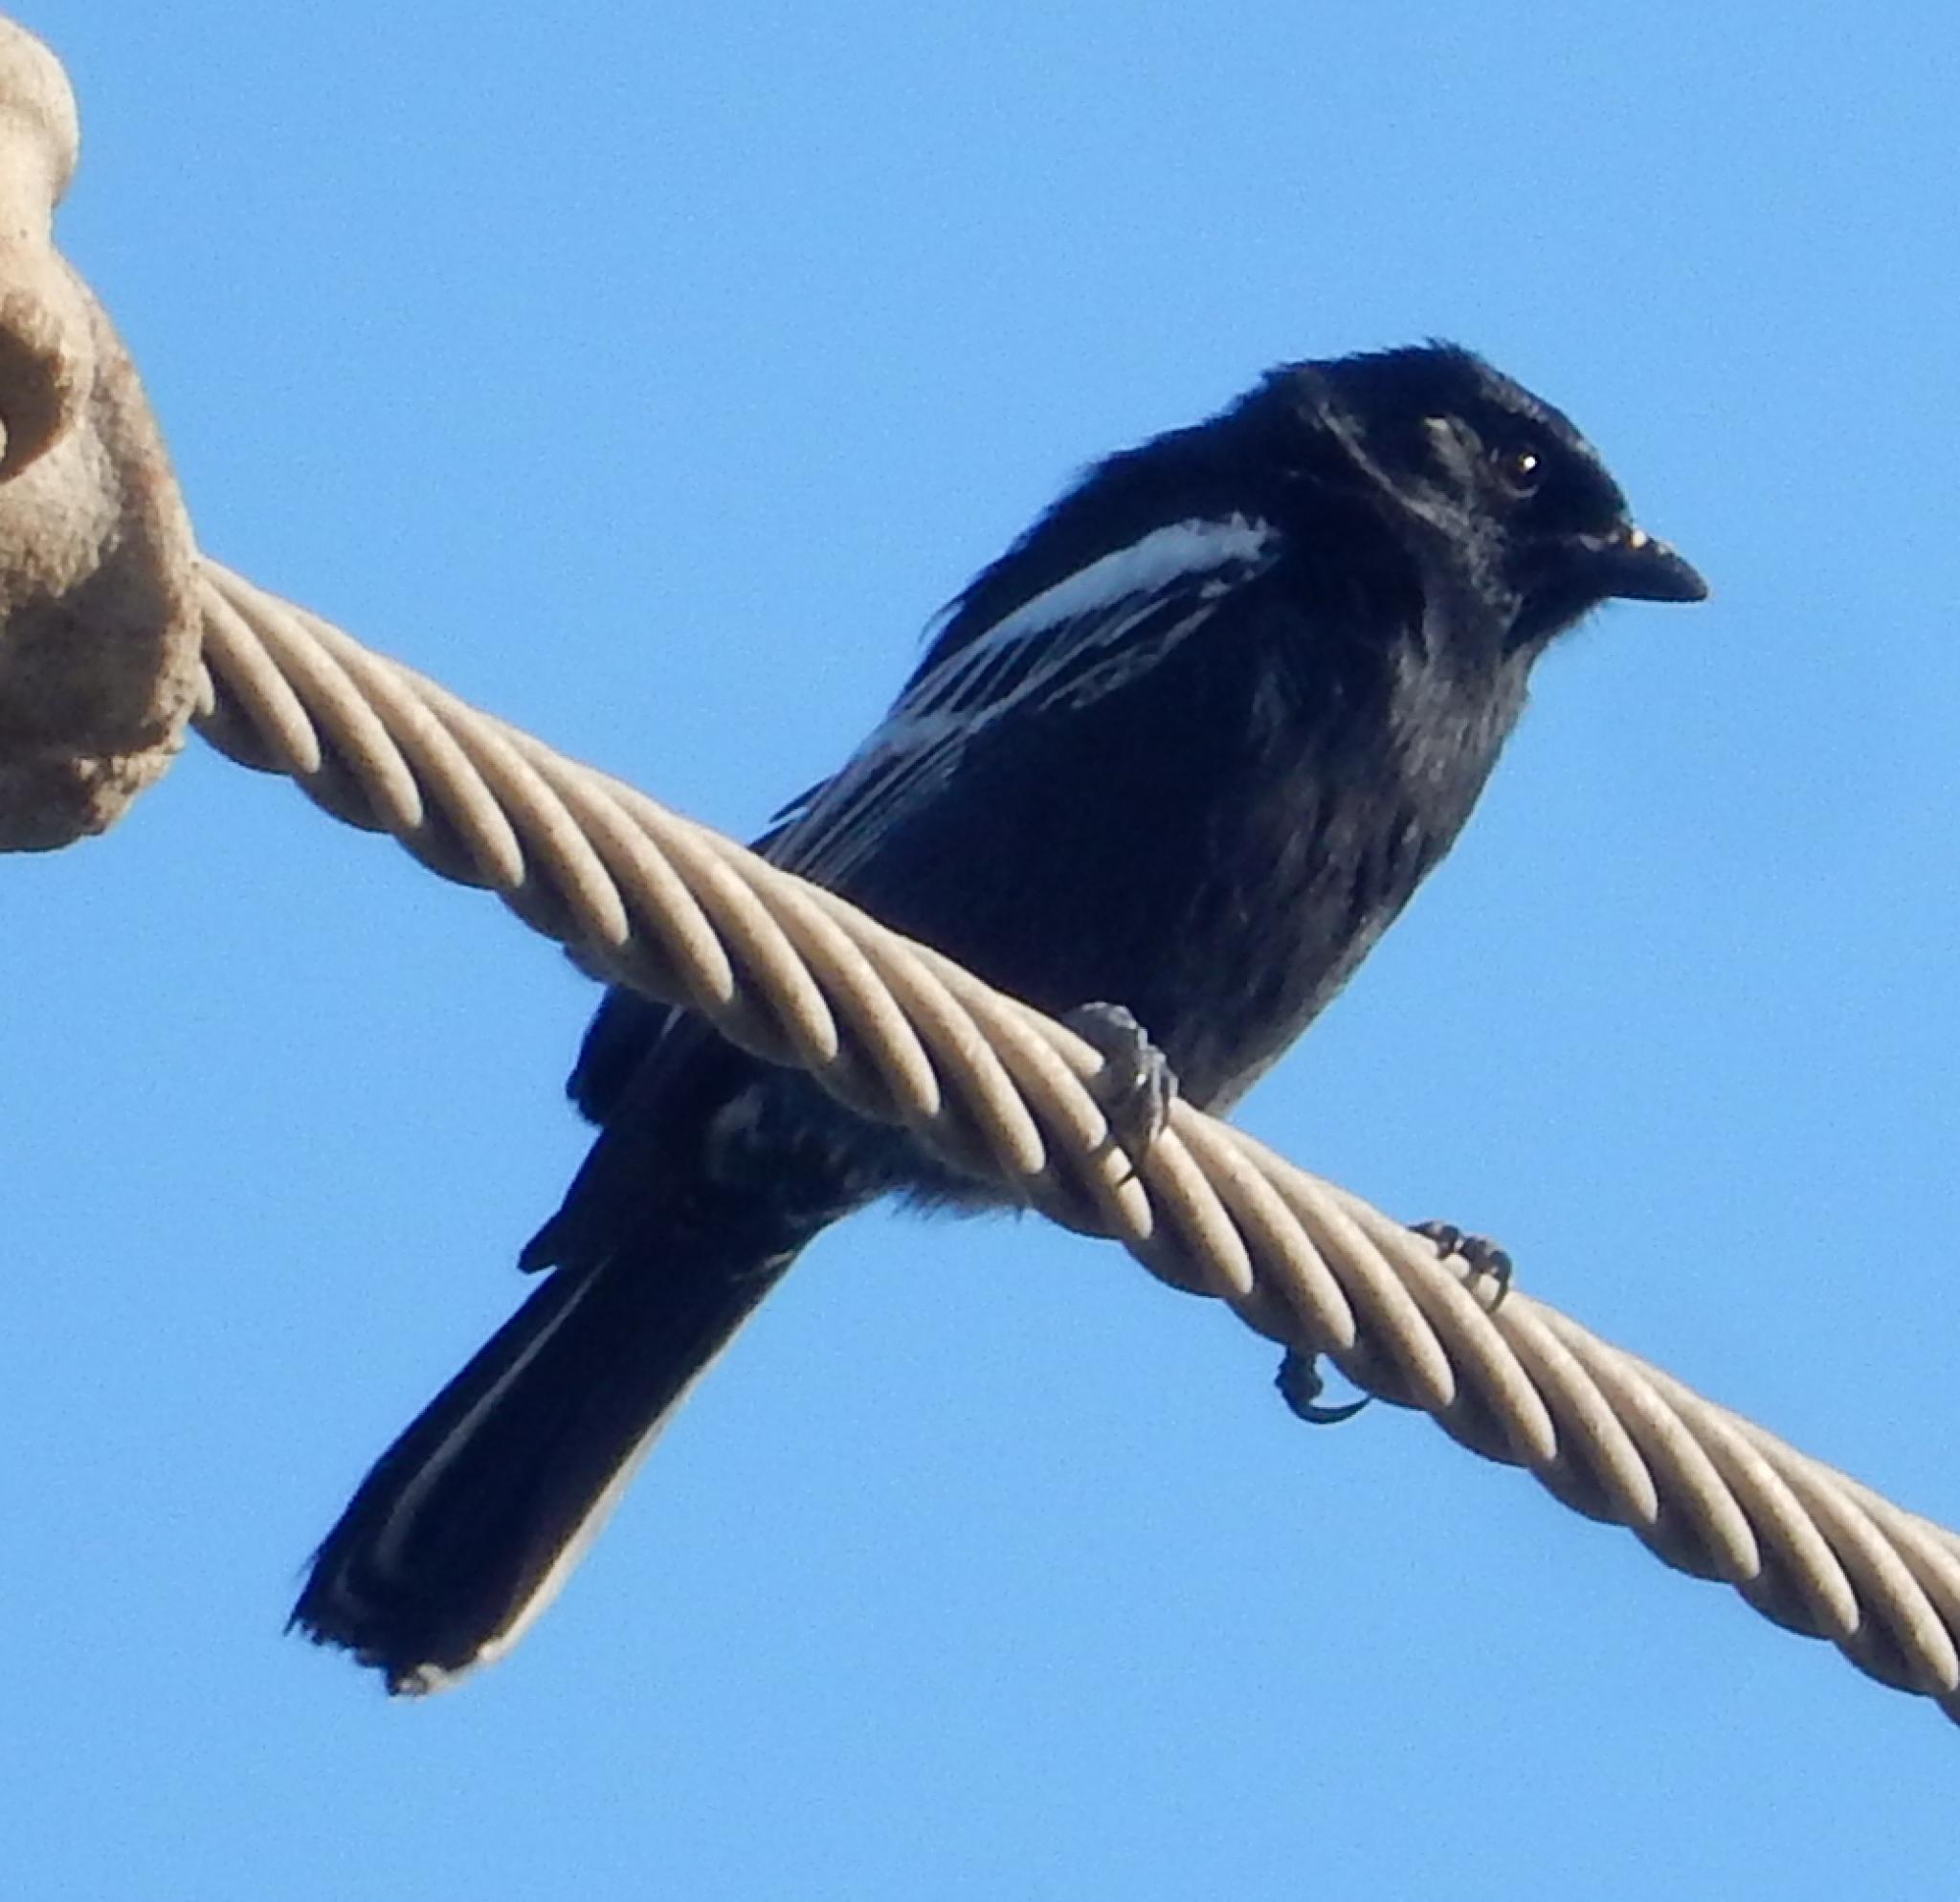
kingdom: Animalia
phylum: Chordata
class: Aves
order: Passeriformes
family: Paridae
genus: Parus
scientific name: Parus niger
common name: Southern black tit
